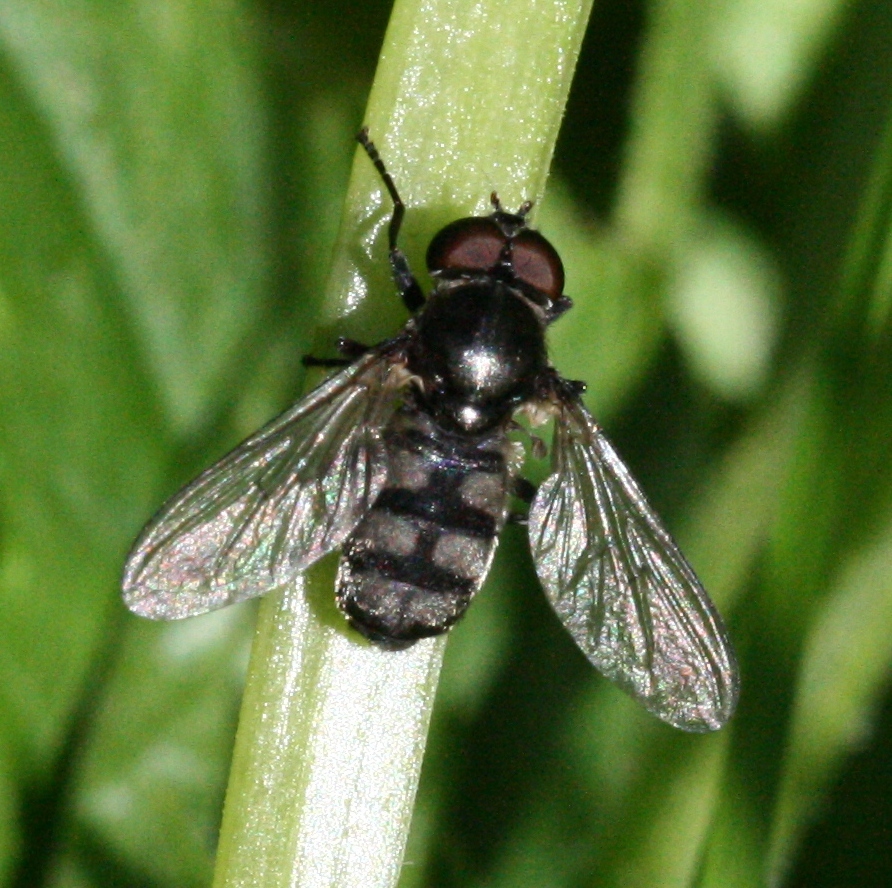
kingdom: Animalia
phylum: Arthropoda
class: Insecta
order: Diptera
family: Syrphidae
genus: Portevinia
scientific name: Portevinia maculata
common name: Ramson's hoverfly
